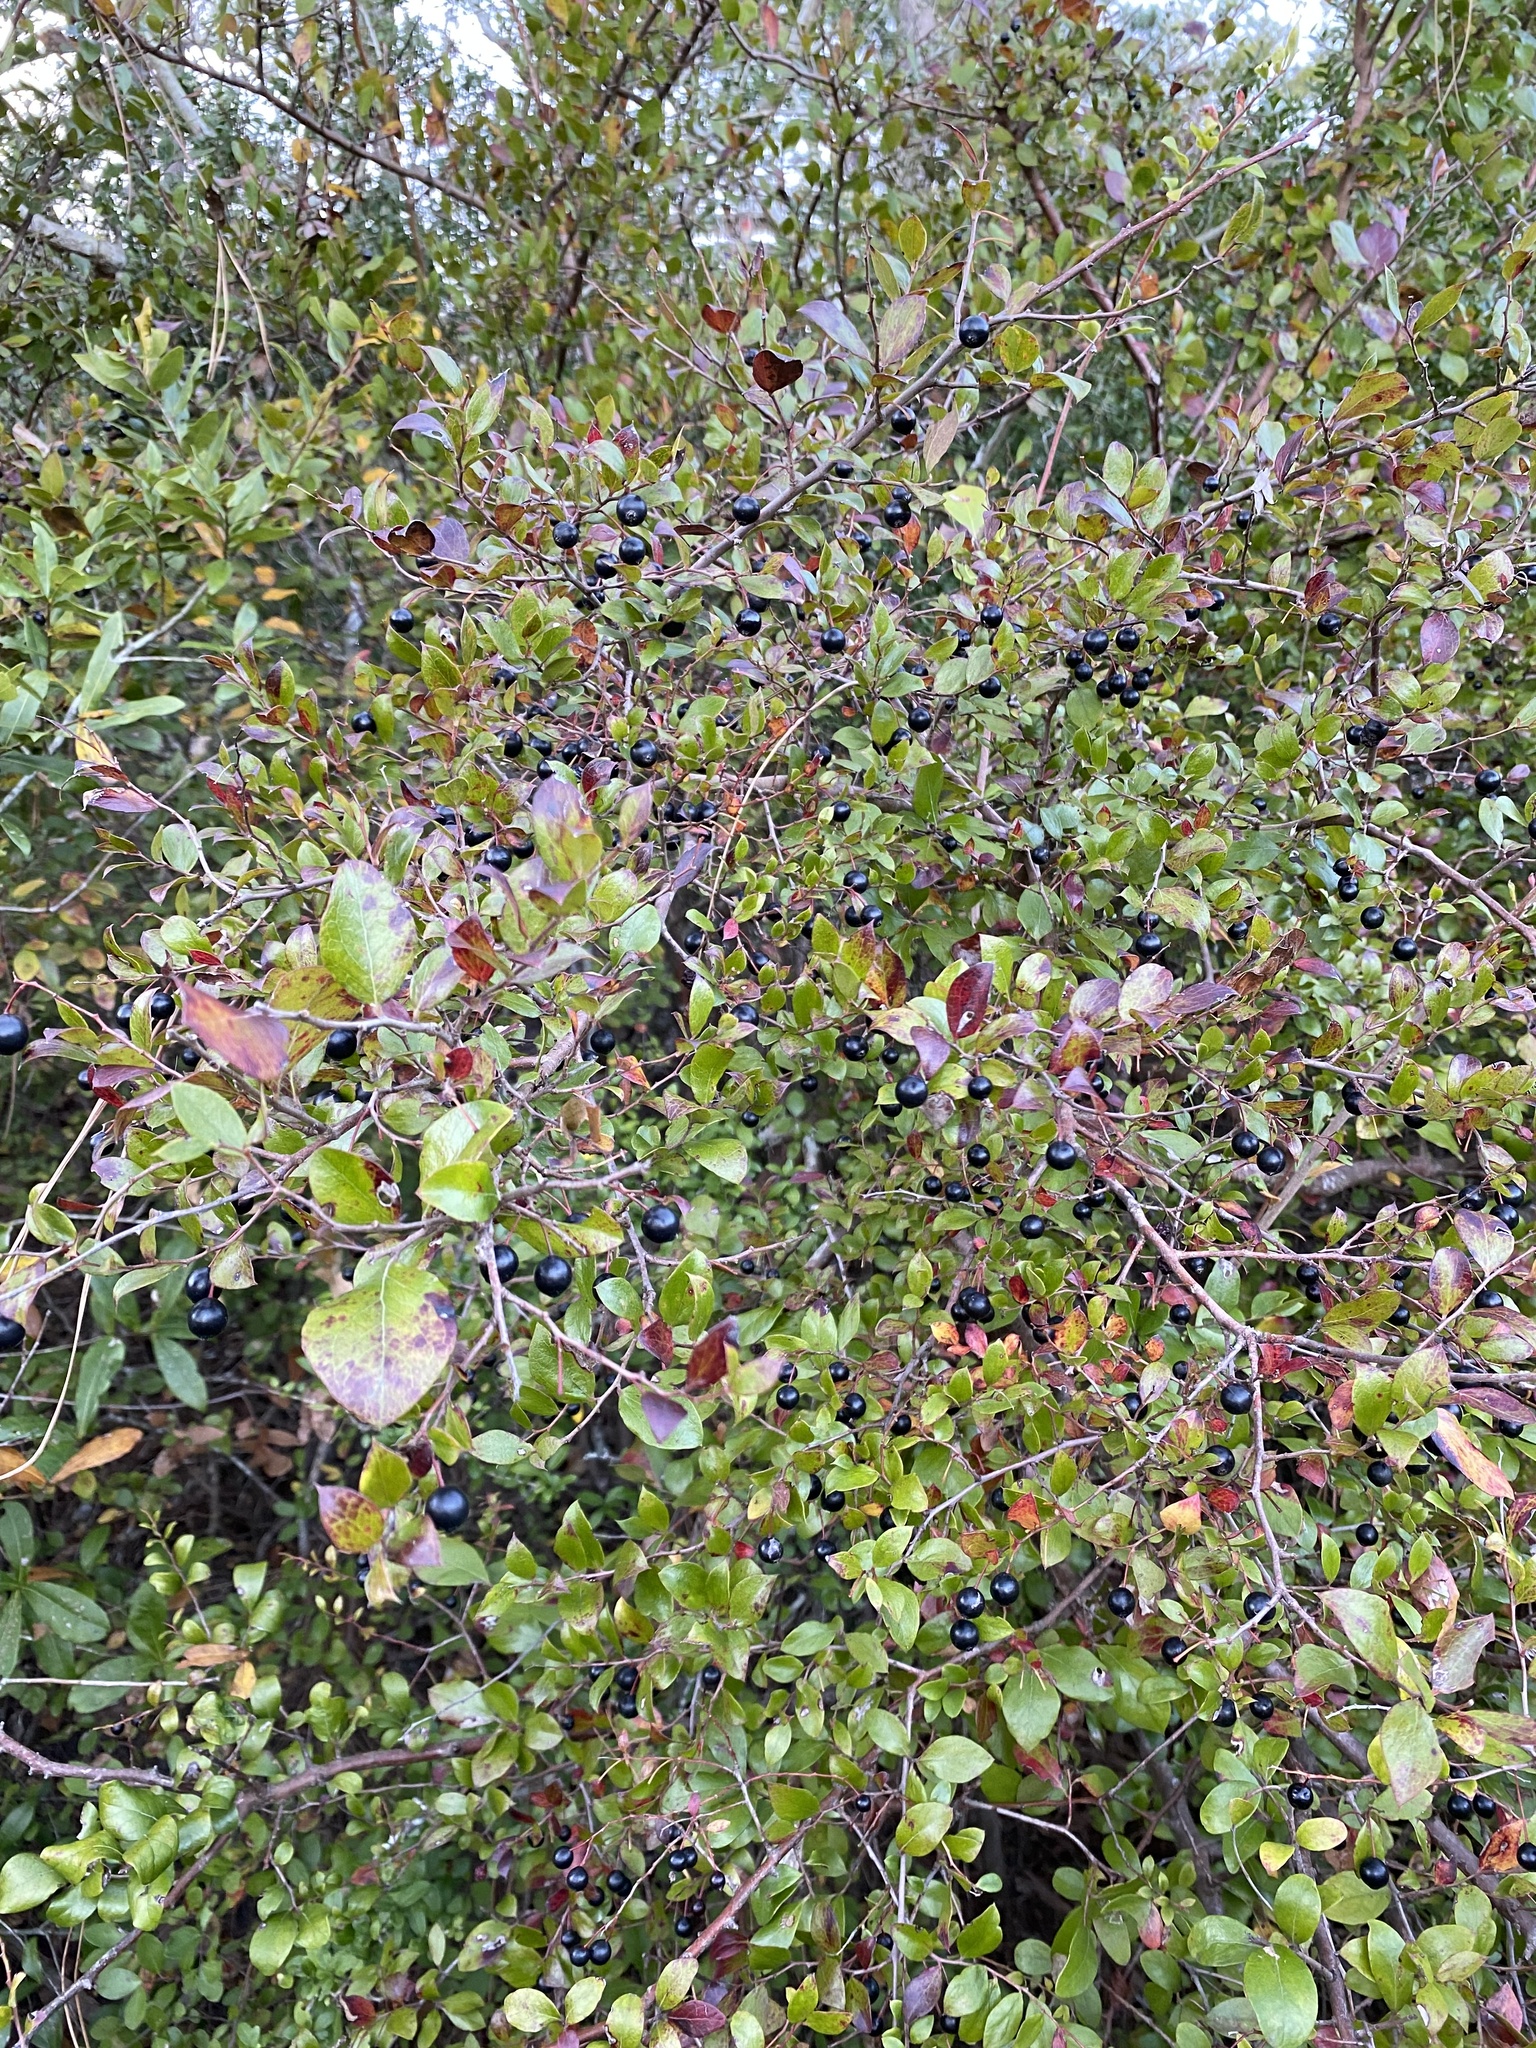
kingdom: Plantae
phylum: Tracheophyta
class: Magnoliopsida
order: Ericales
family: Ericaceae
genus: Vaccinium
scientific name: Vaccinium arboreum
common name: Farkleberry
